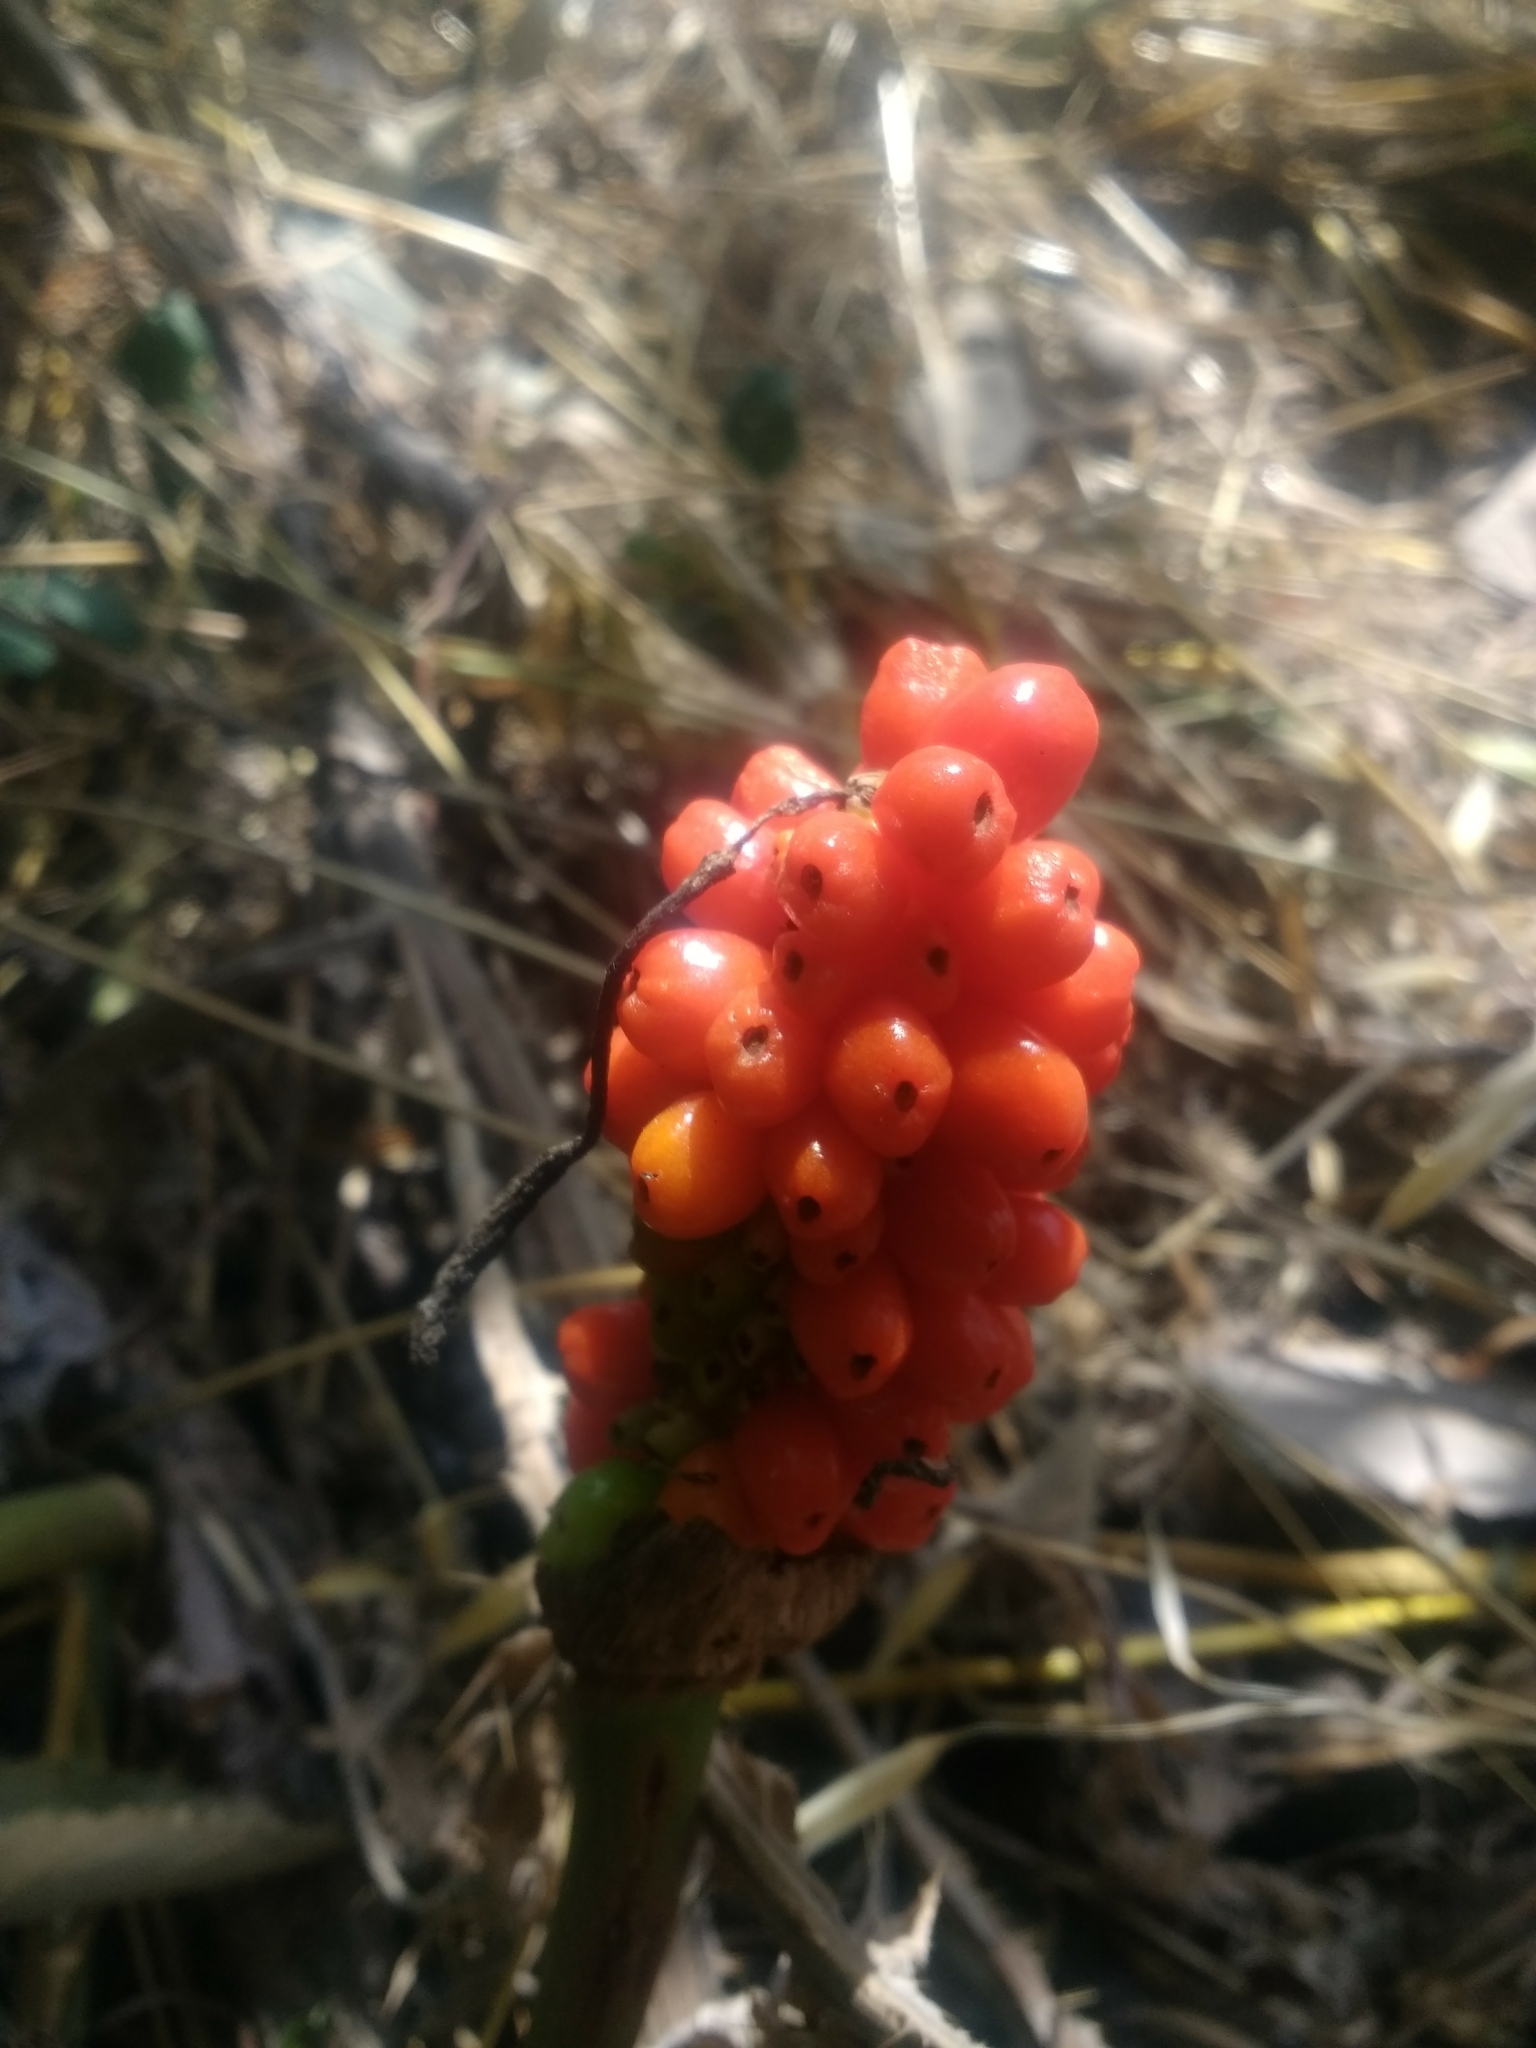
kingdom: Plantae
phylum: Tracheophyta
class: Liliopsida
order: Alismatales
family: Araceae
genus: Arum
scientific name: Arum italicum
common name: Italian lords-and-ladies
